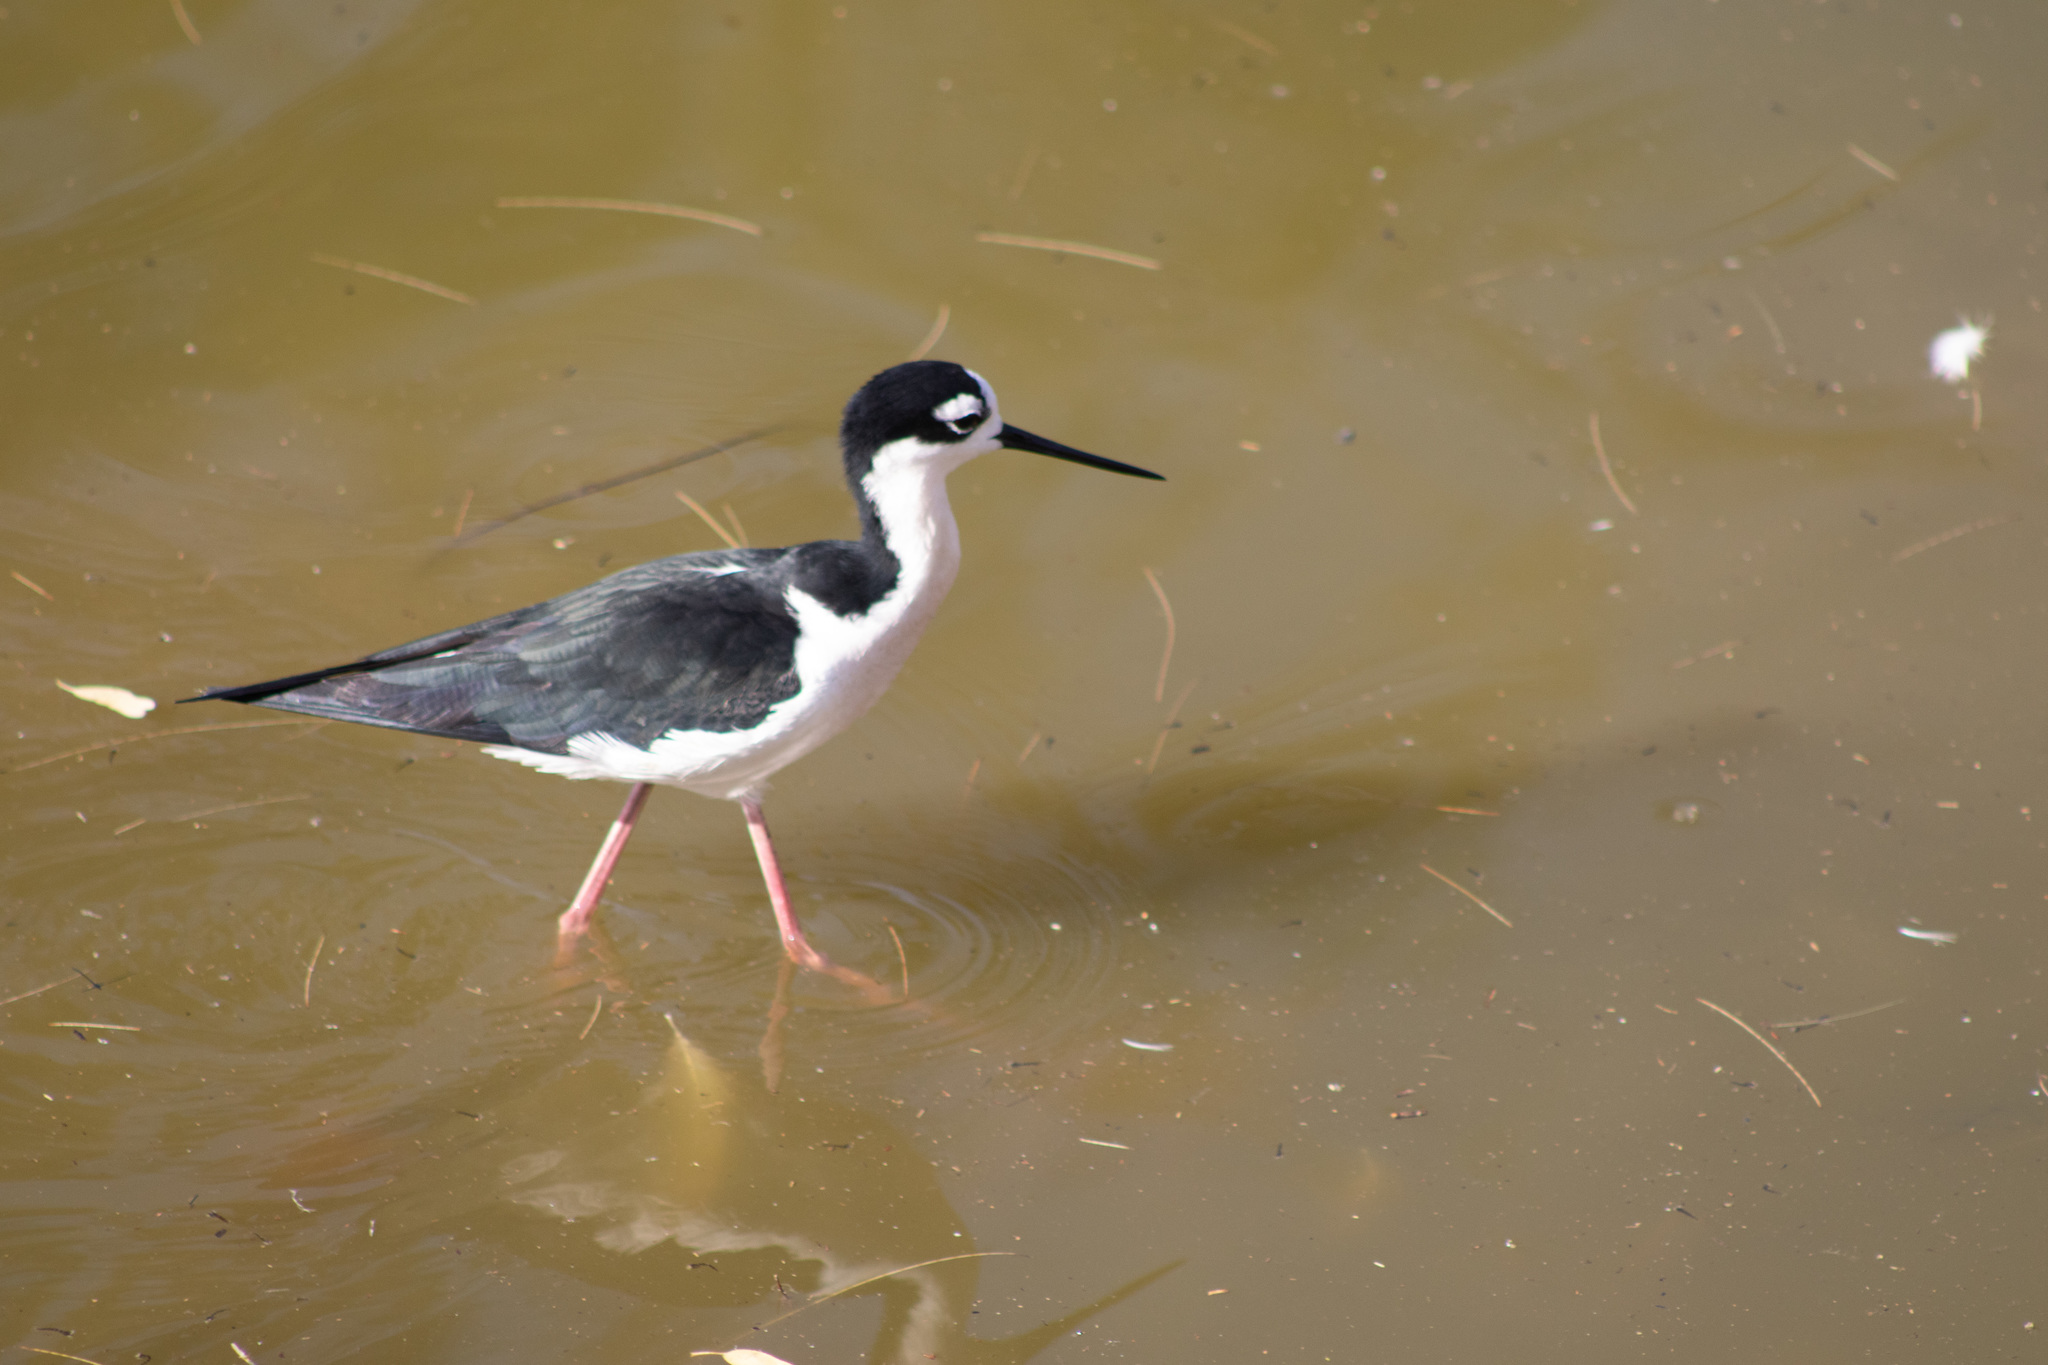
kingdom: Animalia
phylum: Chordata
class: Aves
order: Charadriiformes
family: Recurvirostridae
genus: Himantopus
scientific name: Himantopus mexicanus
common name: Black-necked stilt
